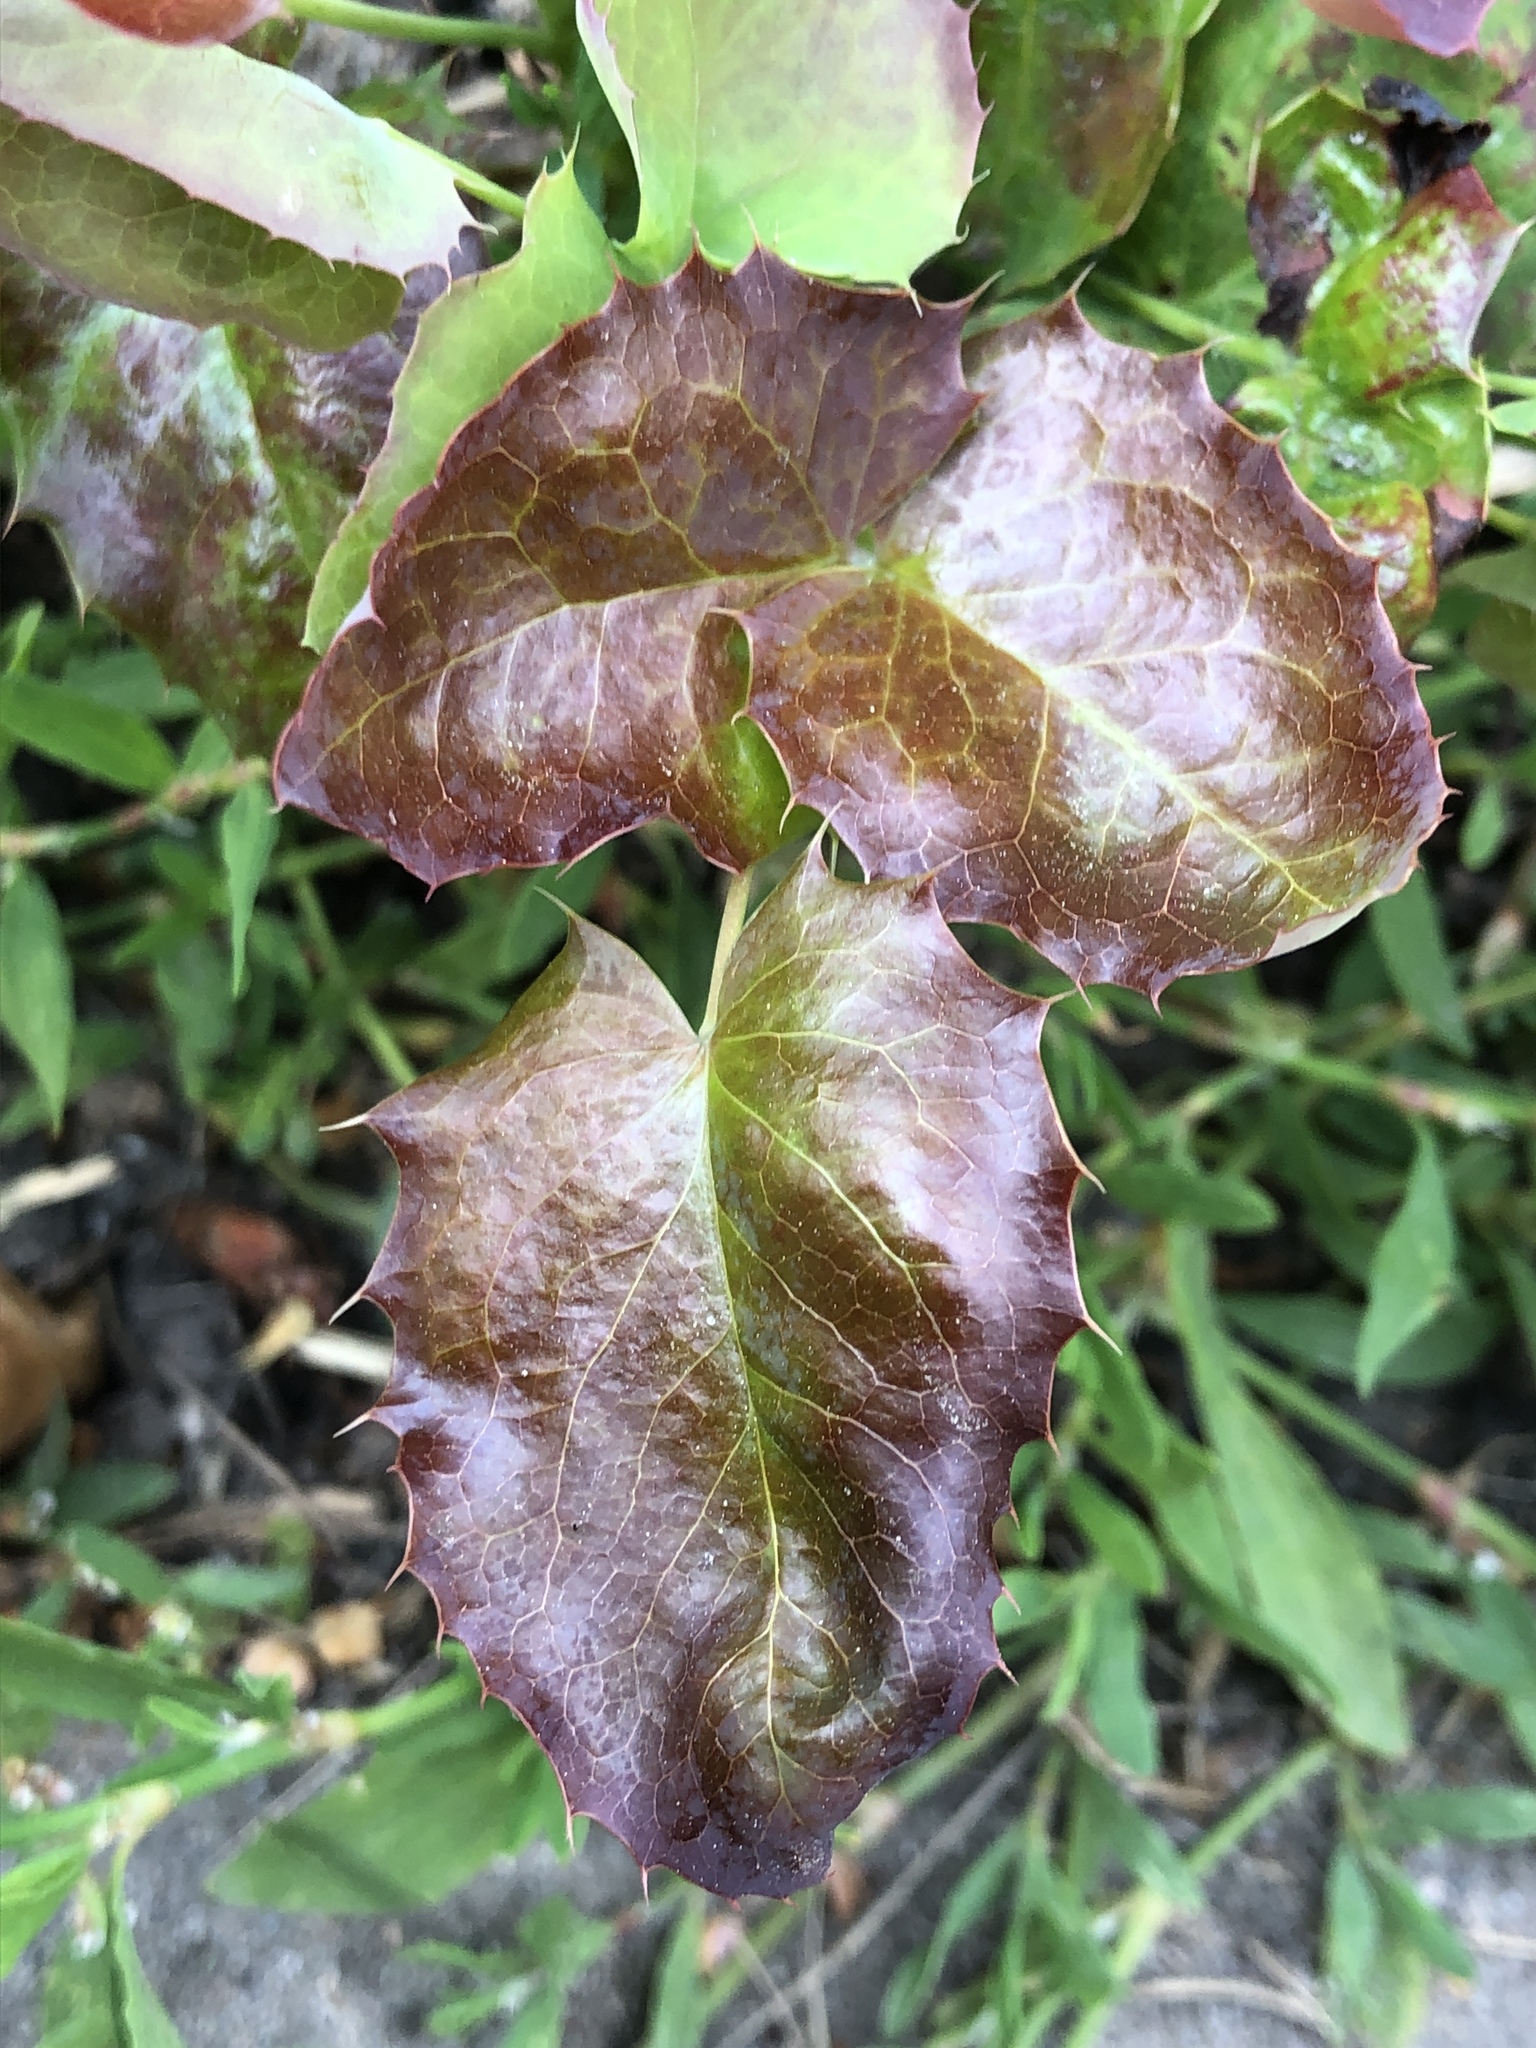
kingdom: Plantae
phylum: Tracheophyta
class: Magnoliopsida
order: Ranunculales
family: Berberidaceae
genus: Mahonia
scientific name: Mahonia aquifolium
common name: Oregon-grape
